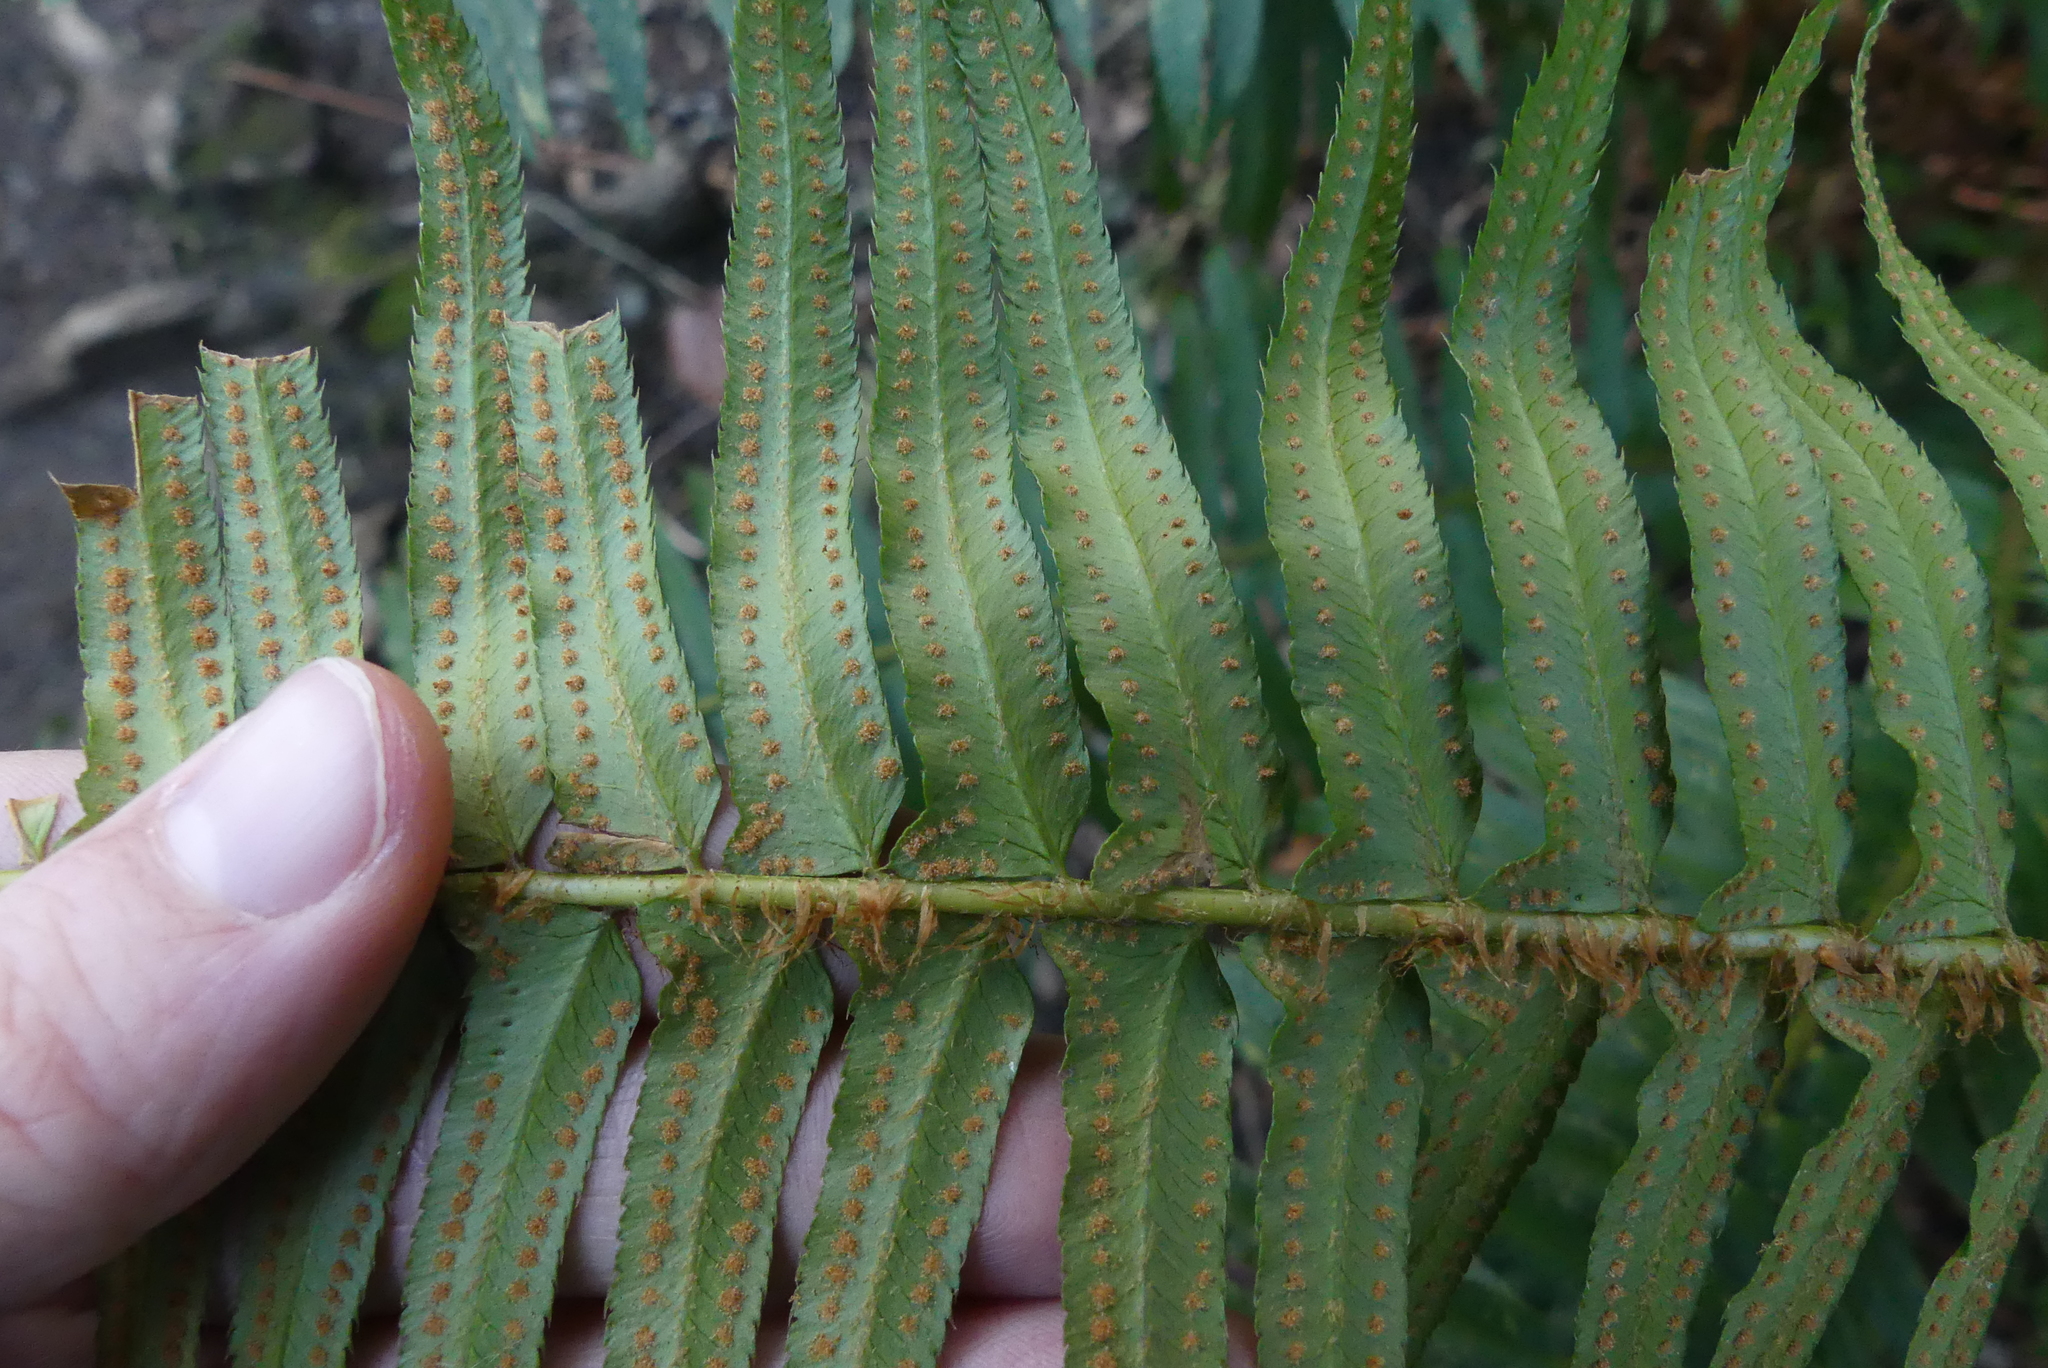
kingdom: Plantae
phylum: Tracheophyta
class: Polypodiopsida
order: Polypodiales
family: Dryopteridaceae
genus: Polystichum
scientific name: Polystichum munitum
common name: Western sword-fern
